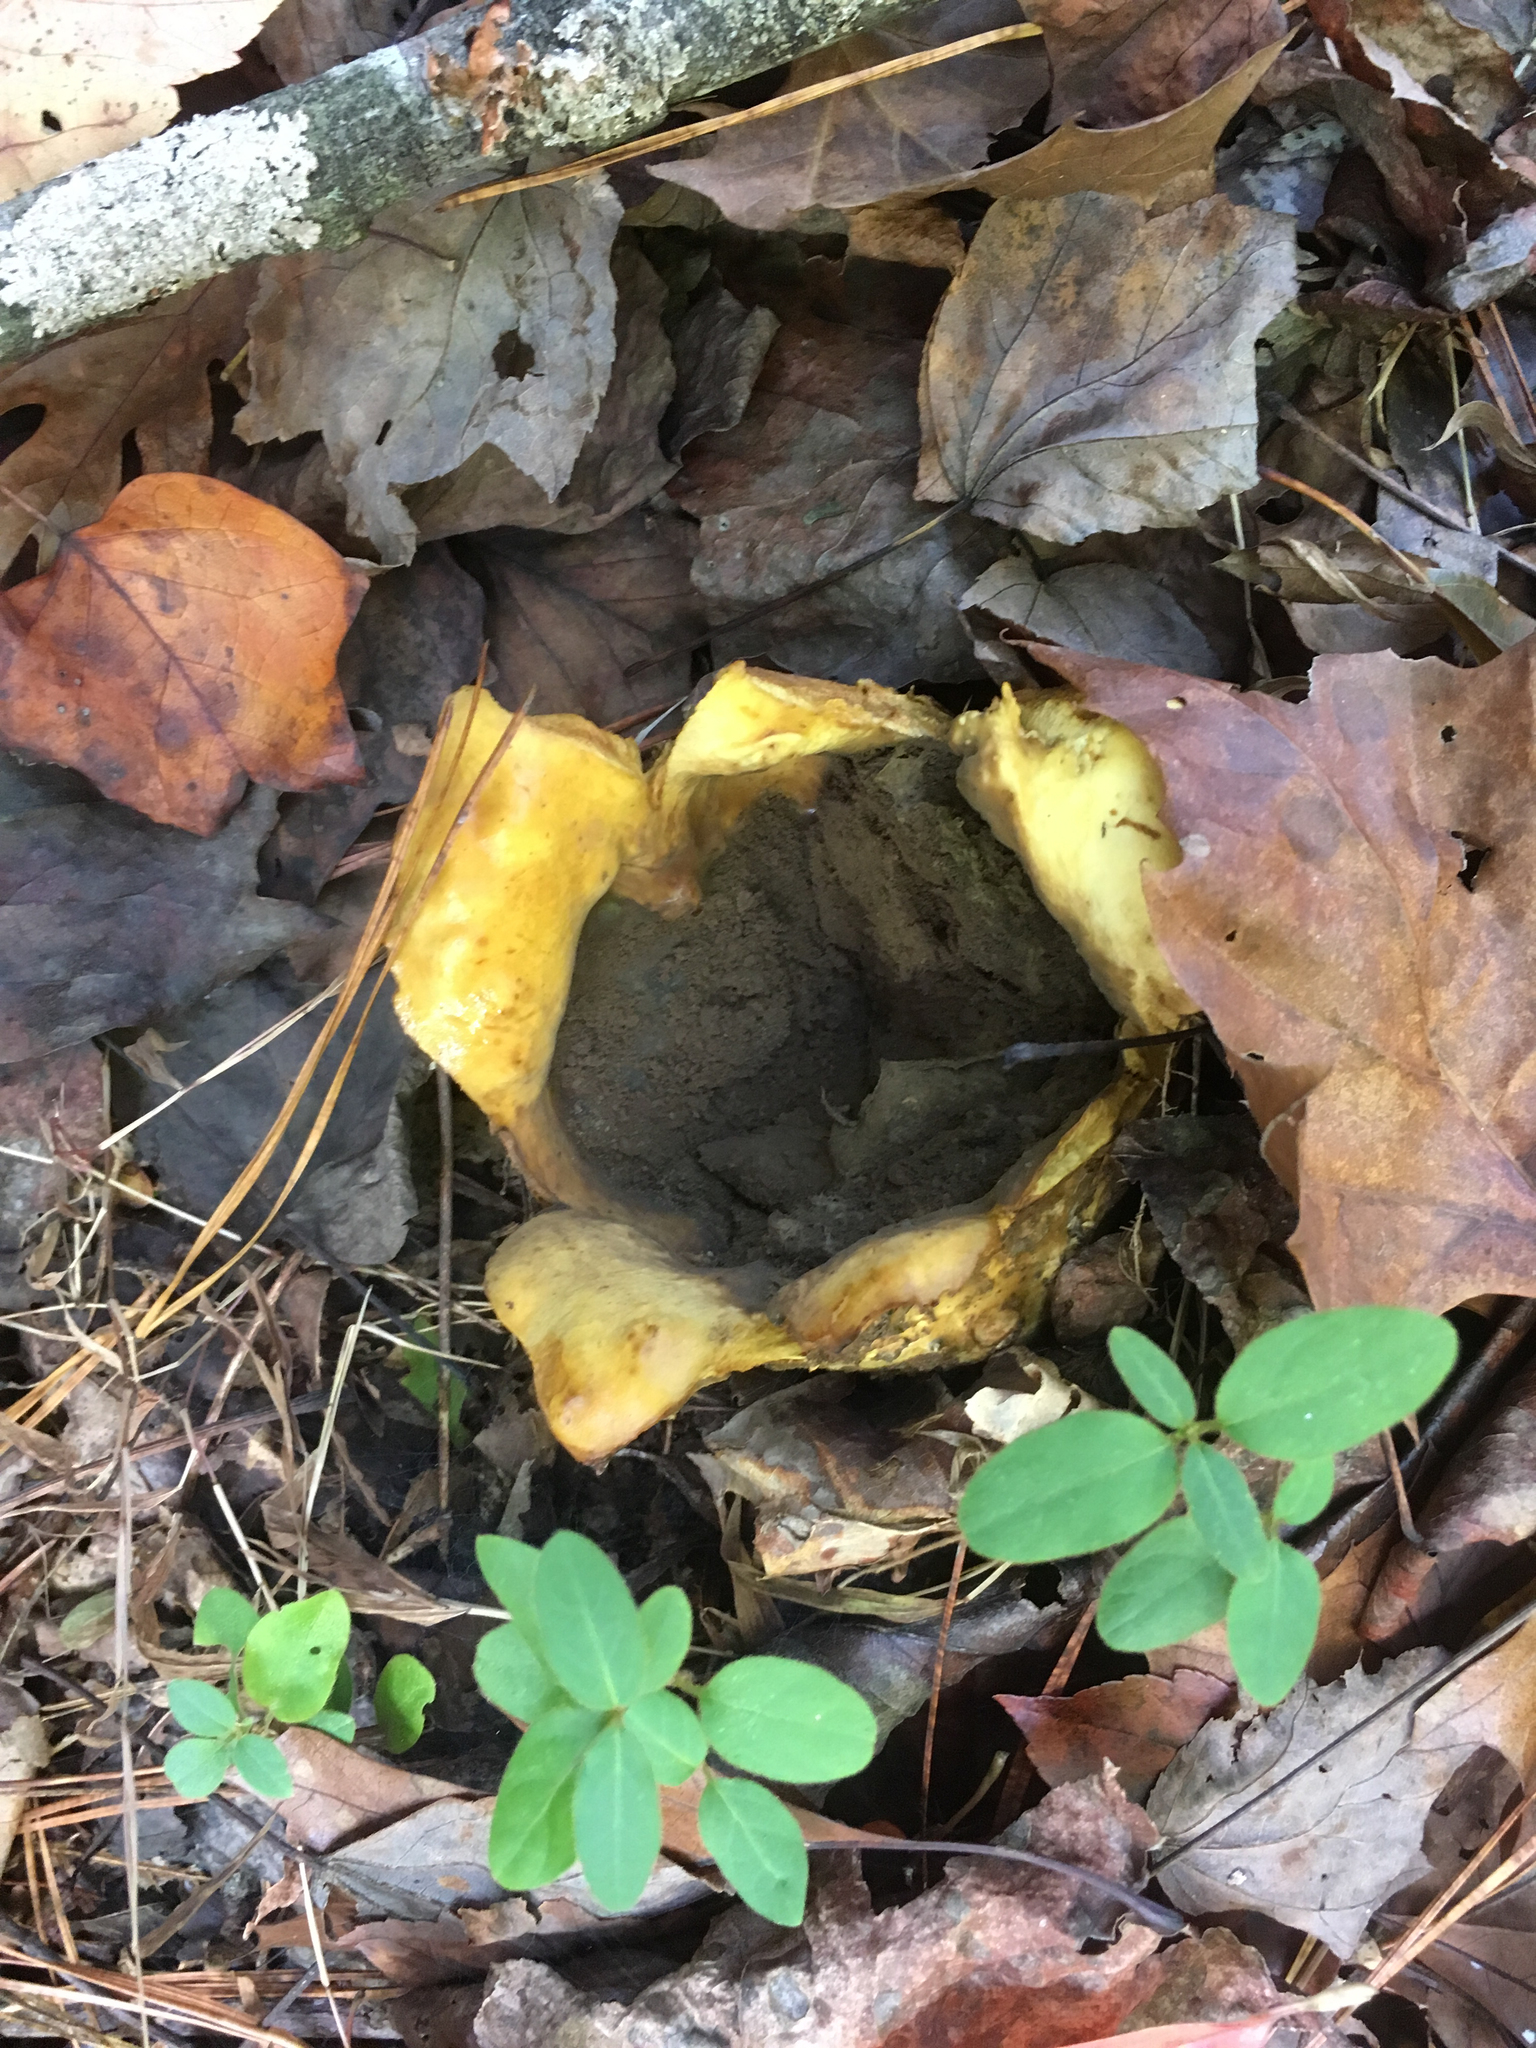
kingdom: Fungi
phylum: Basidiomycota
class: Agaricomycetes
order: Boletales
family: Sclerodermataceae
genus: Scleroderma
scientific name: Scleroderma polyrhizum
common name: Many-rooted earthball
